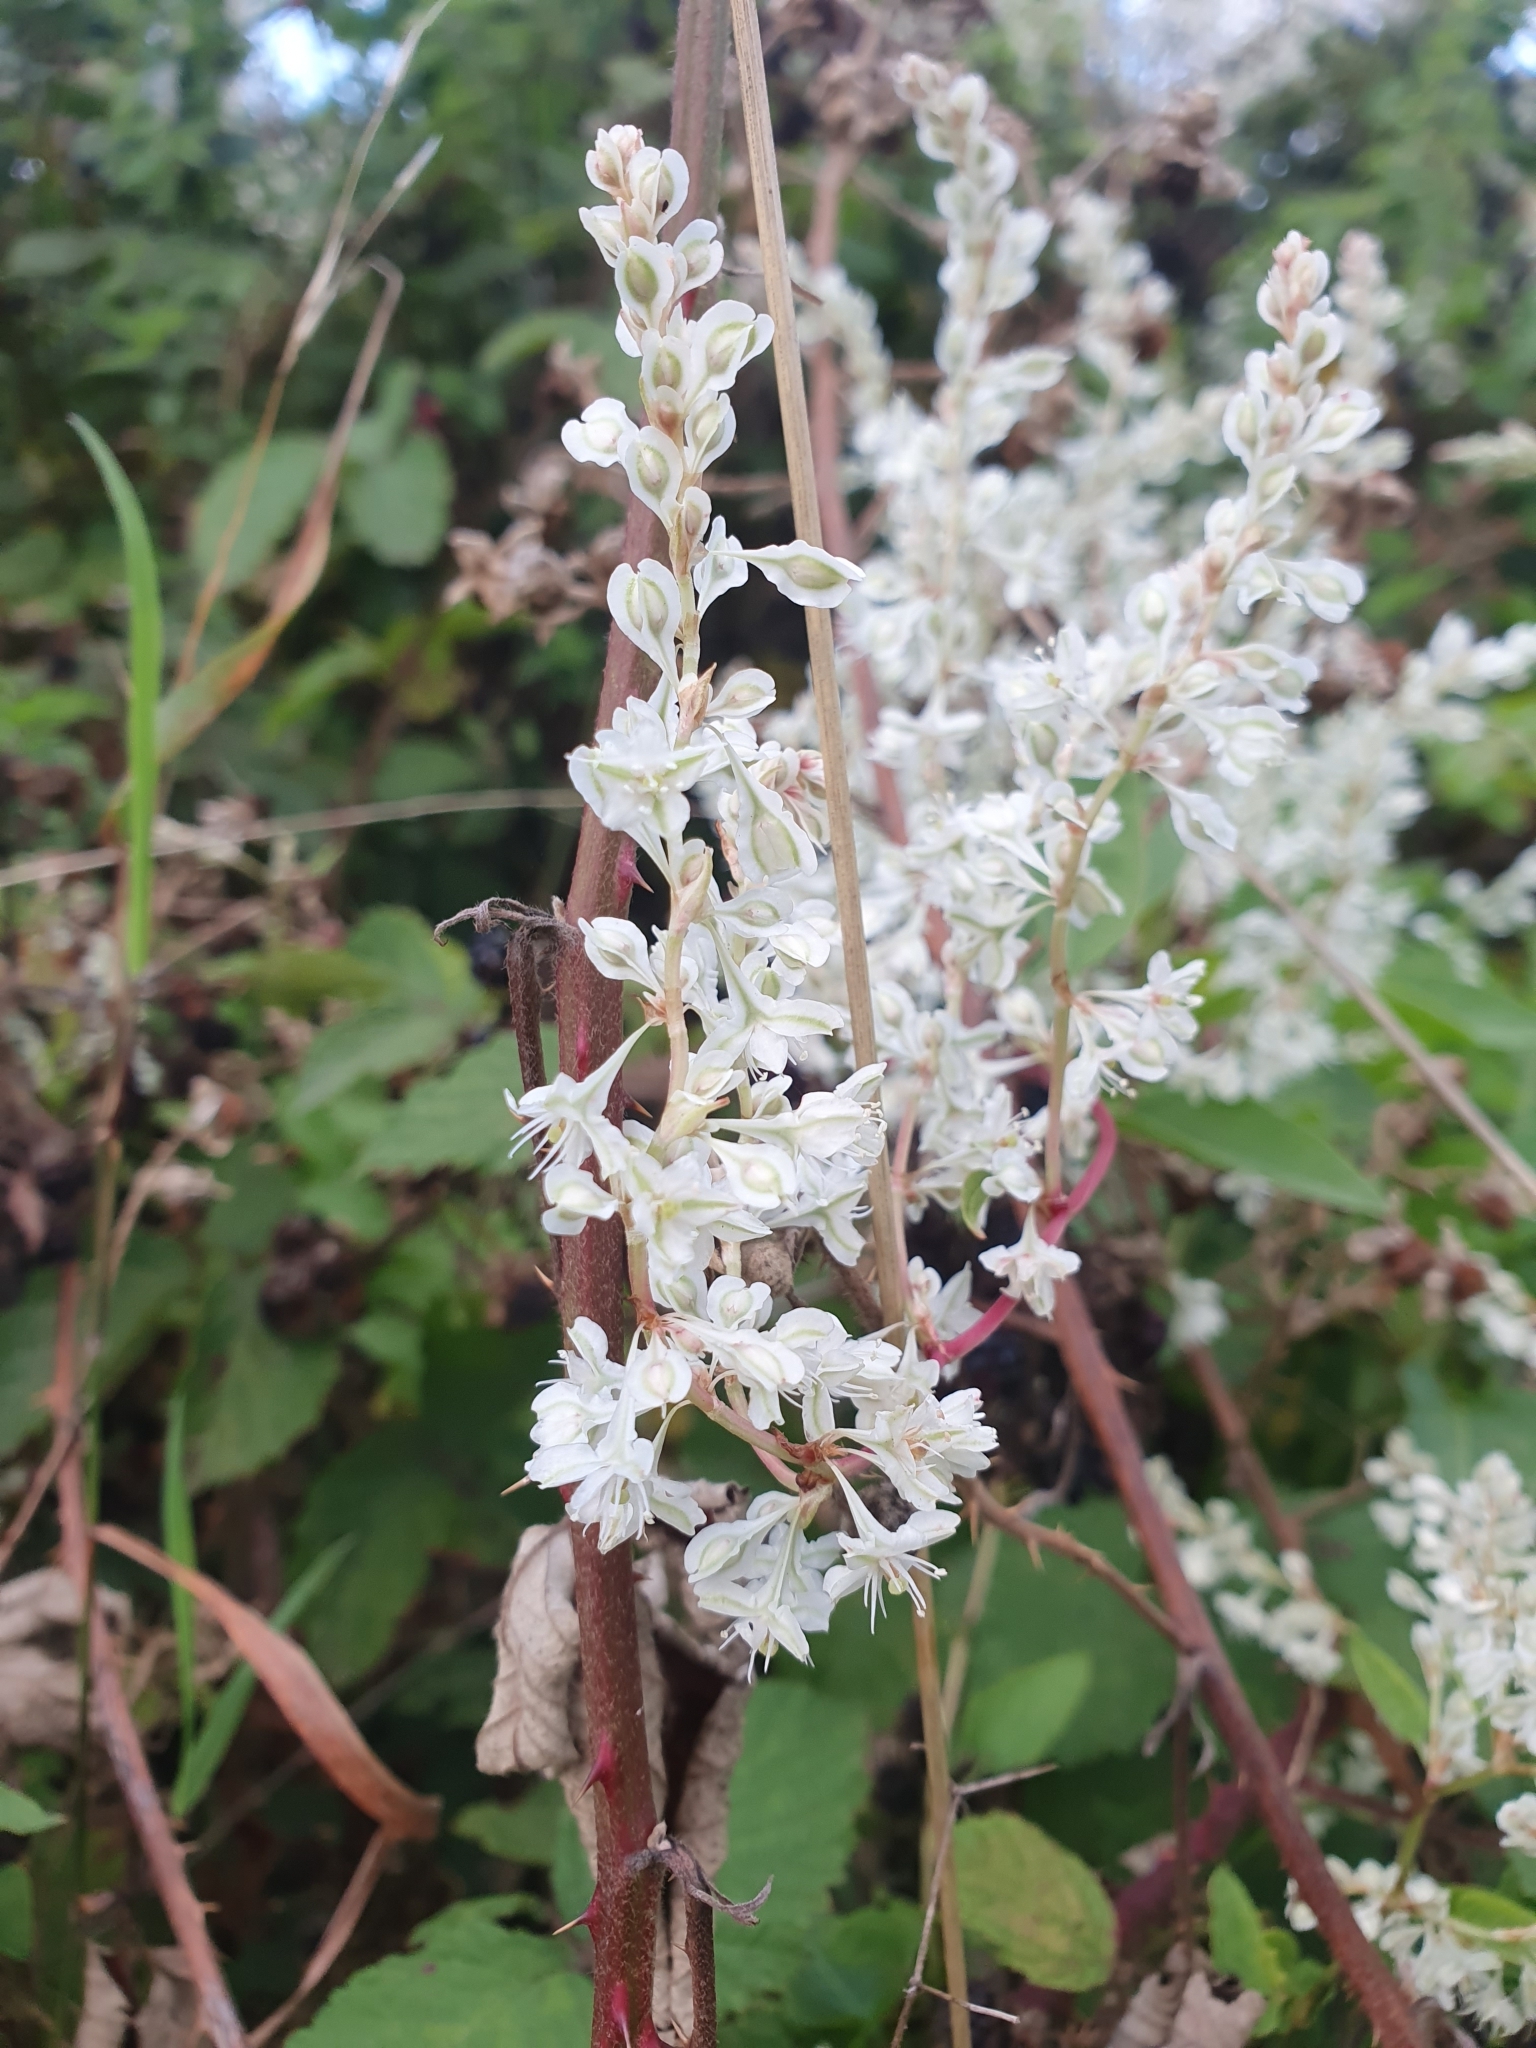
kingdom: Plantae
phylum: Tracheophyta
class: Magnoliopsida
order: Caryophyllales
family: Polygonaceae
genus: Fallopia
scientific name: Fallopia baldschuanica
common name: Russian-vine
